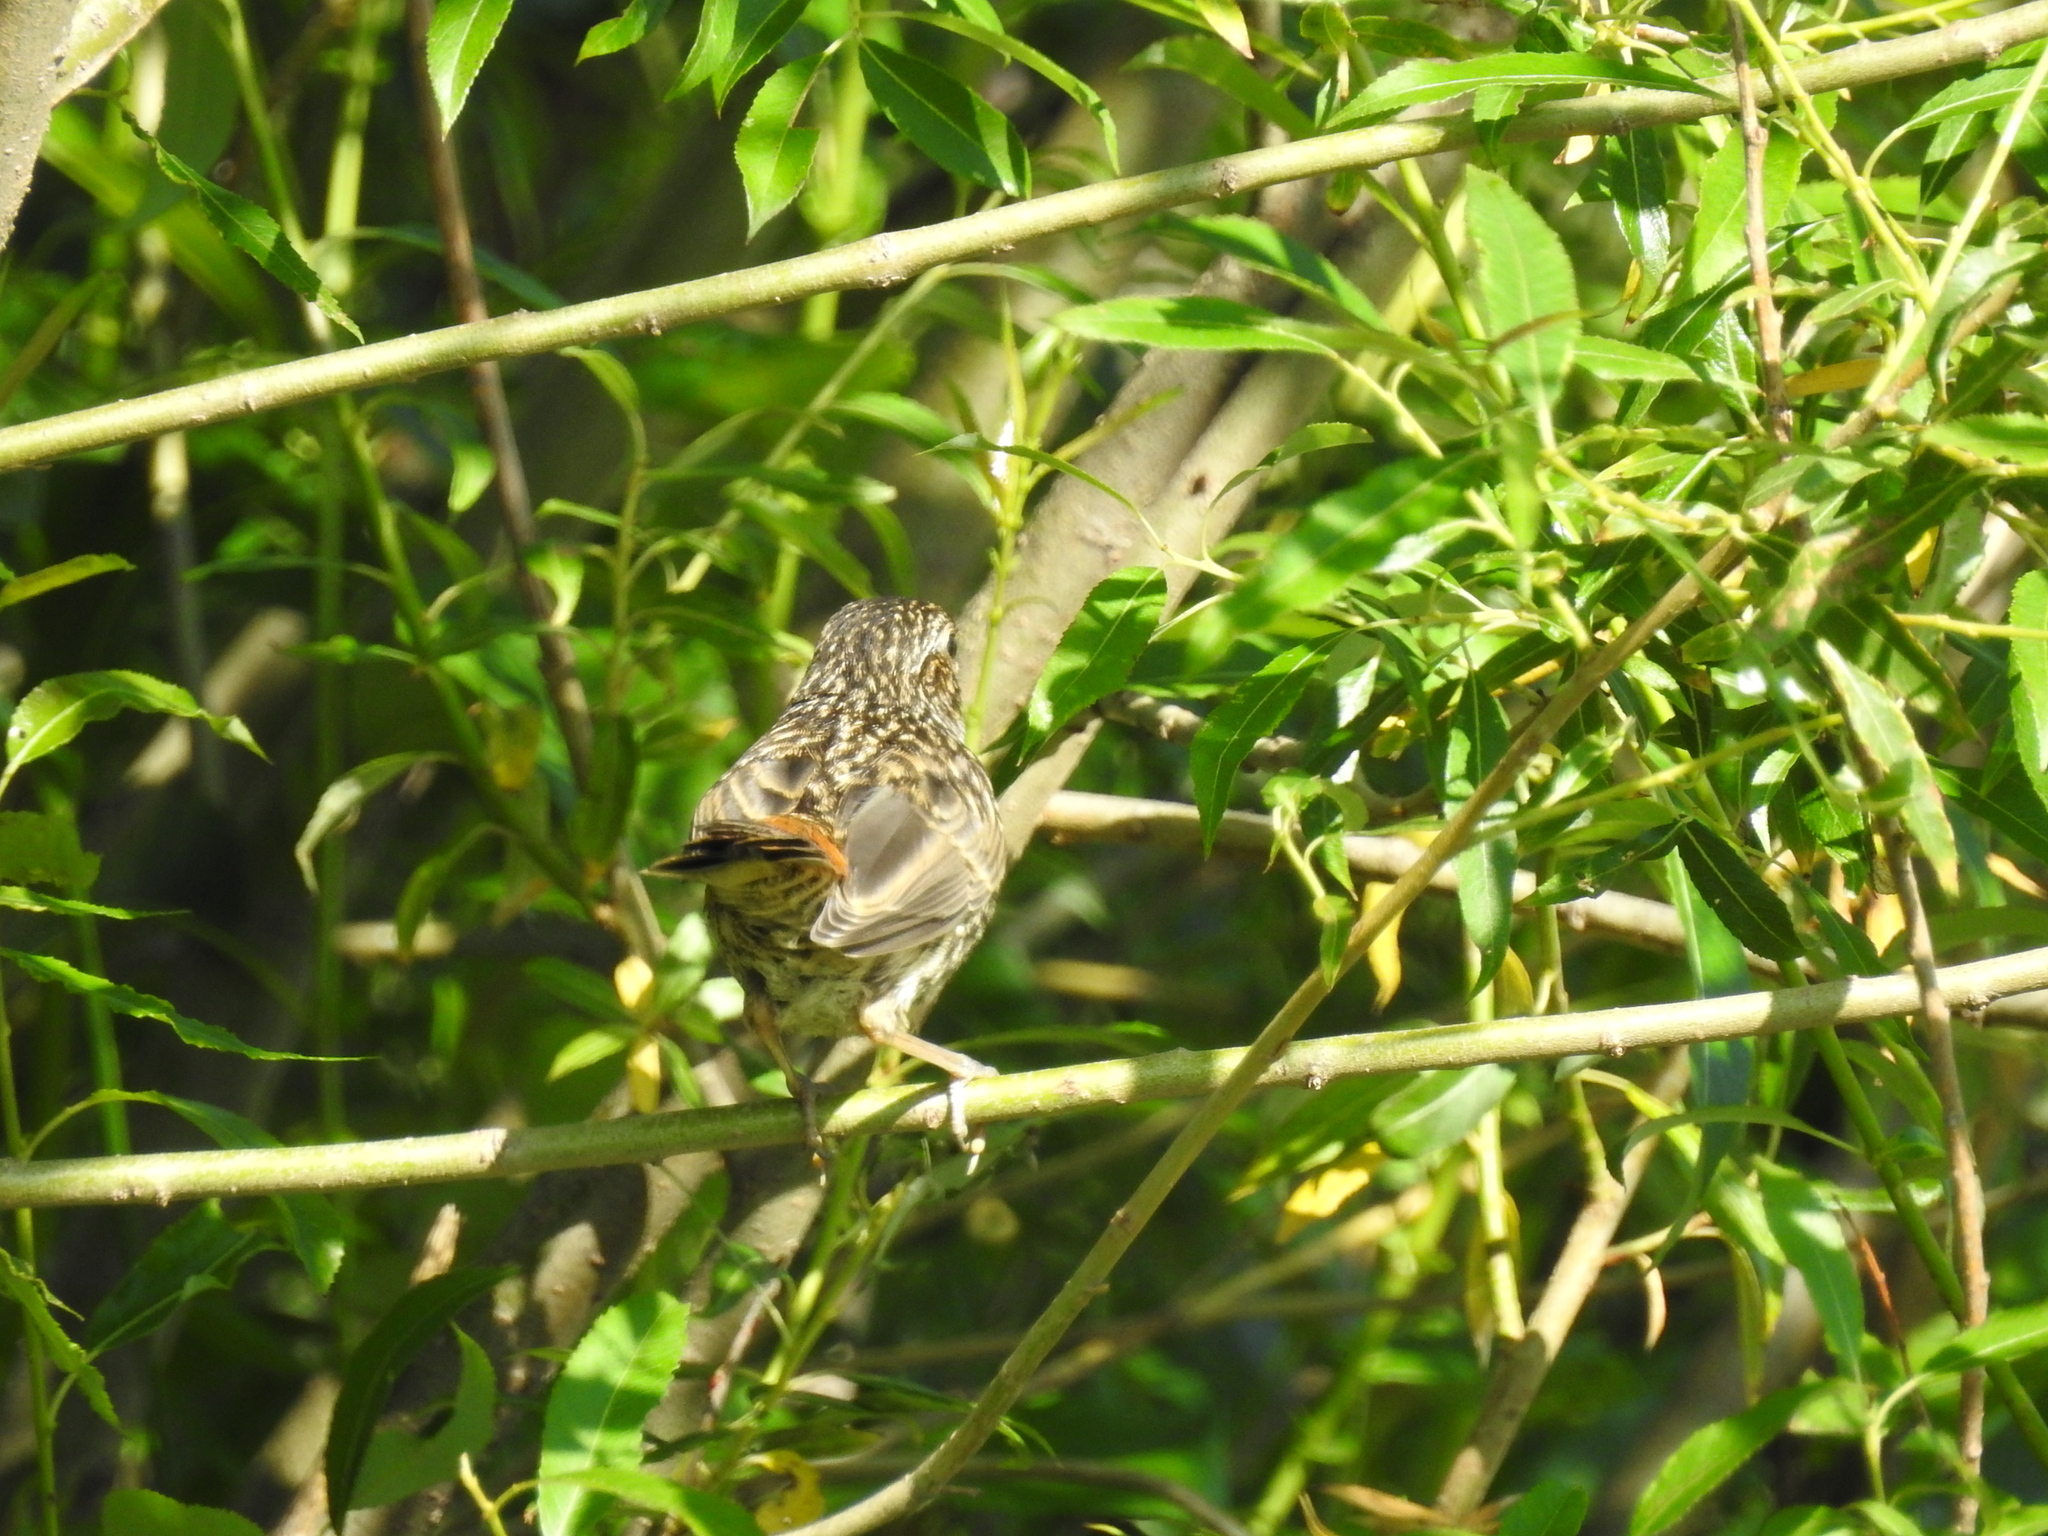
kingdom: Animalia
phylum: Chordata
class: Aves
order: Passeriformes
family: Muscicapidae
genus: Luscinia
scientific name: Luscinia svecica
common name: Bluethroat
